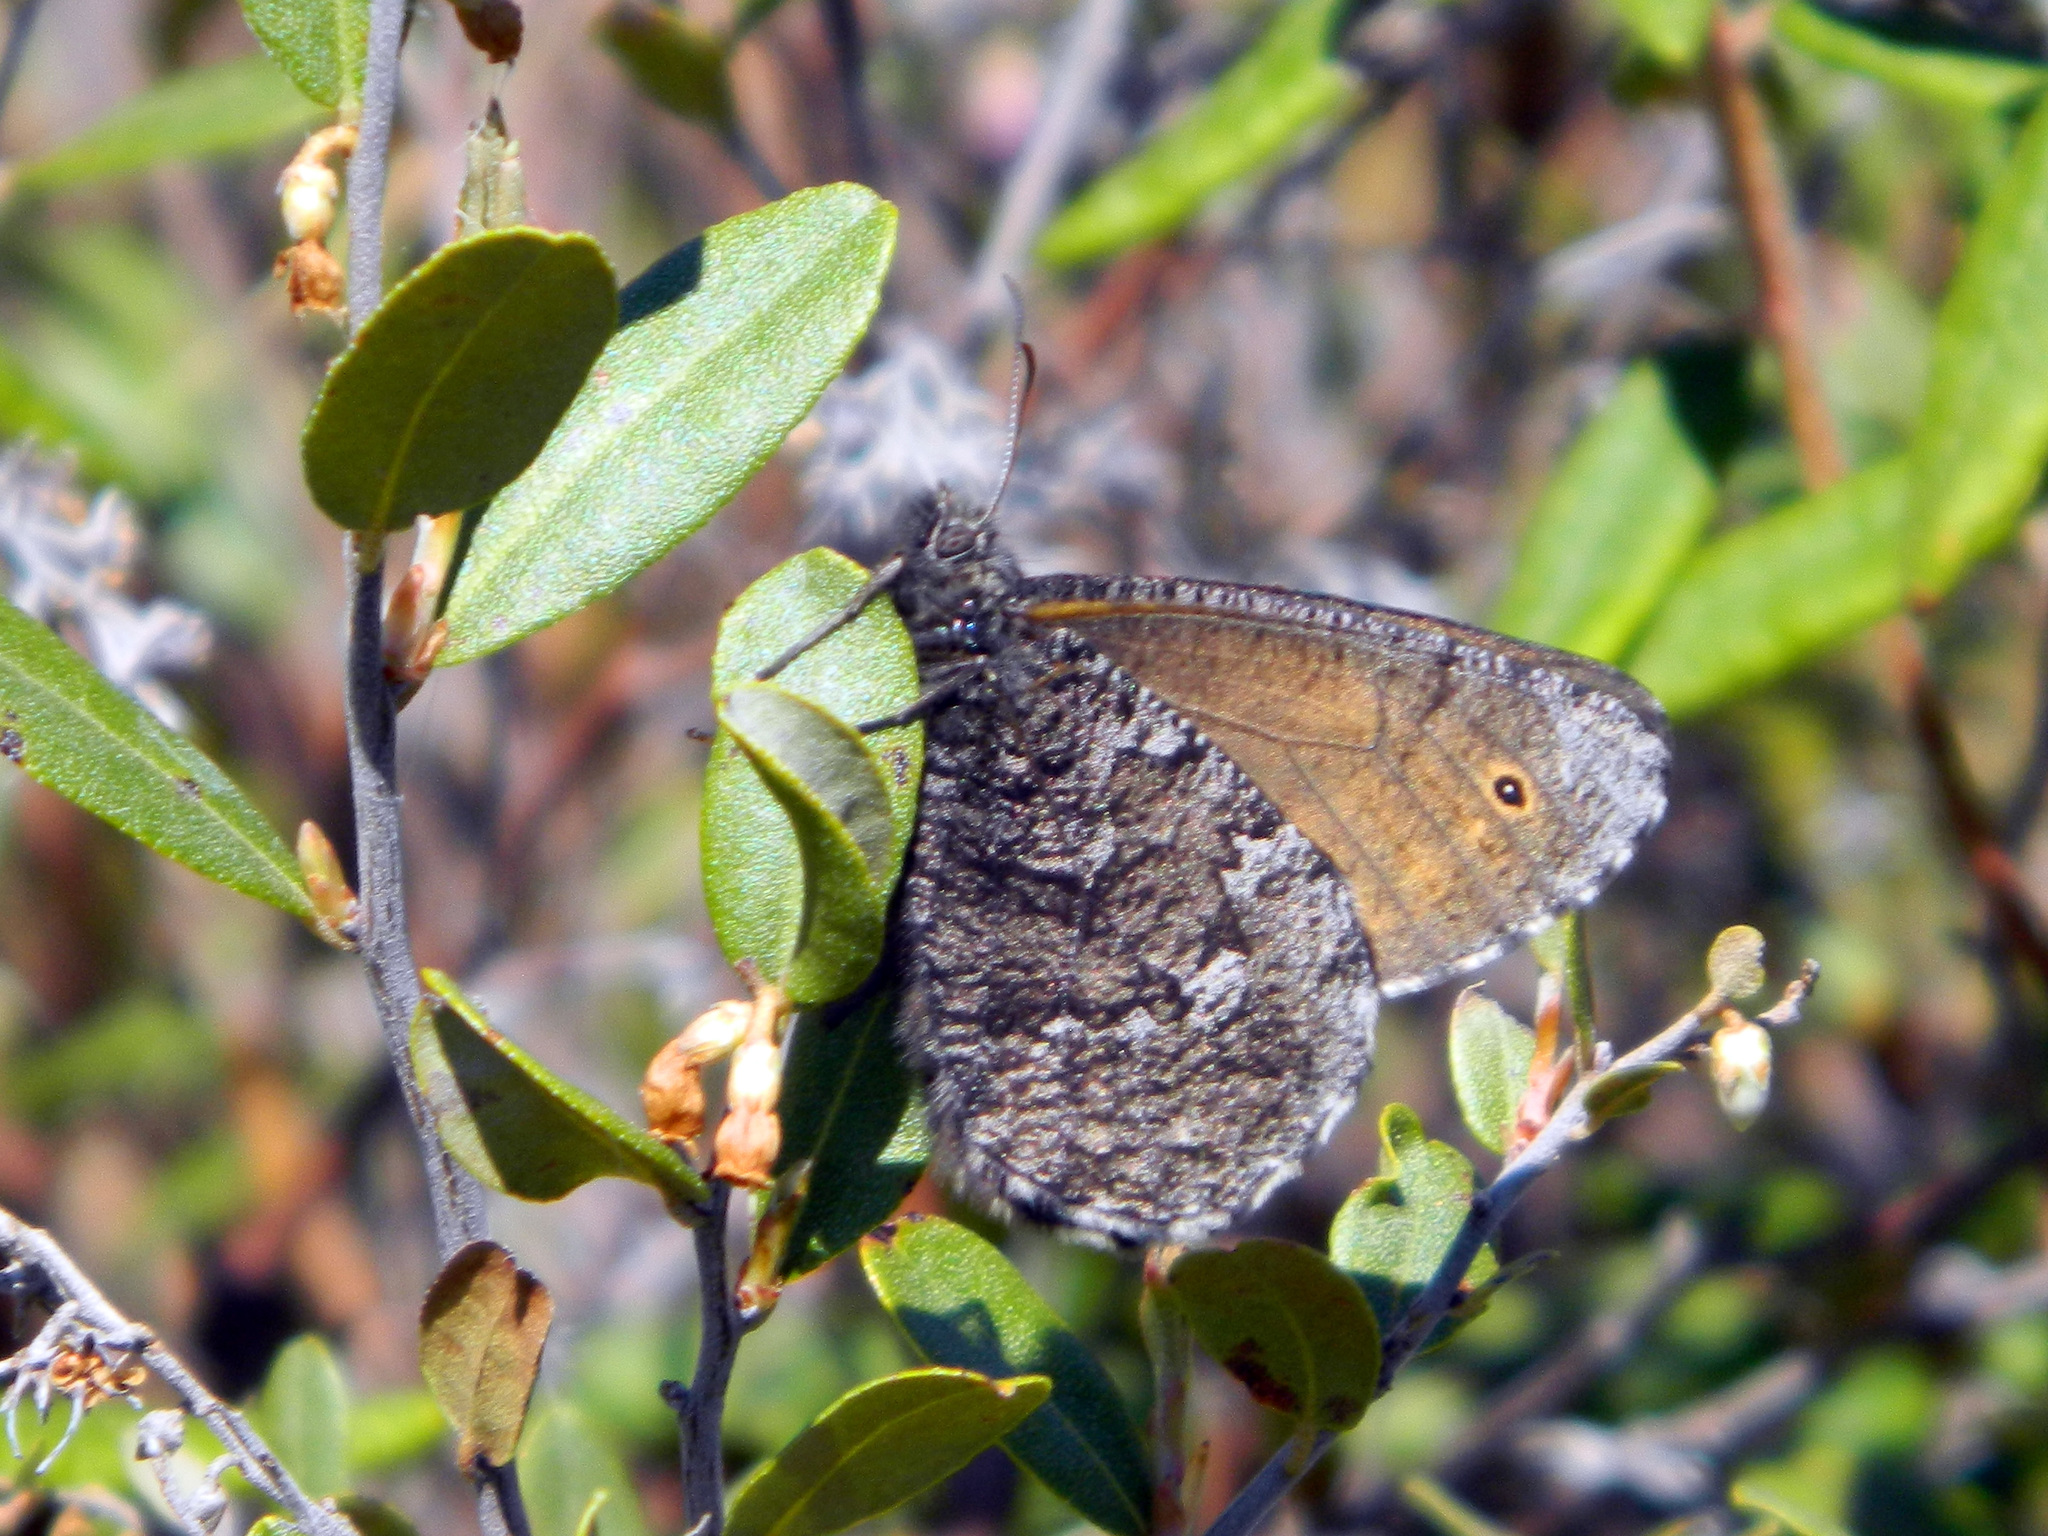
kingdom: Animalia
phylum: Arthropoda
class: Insecta
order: Lepidoptera
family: Nymphalidae
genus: Oeneis
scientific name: Oeneis jutta
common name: Baltic grayling
